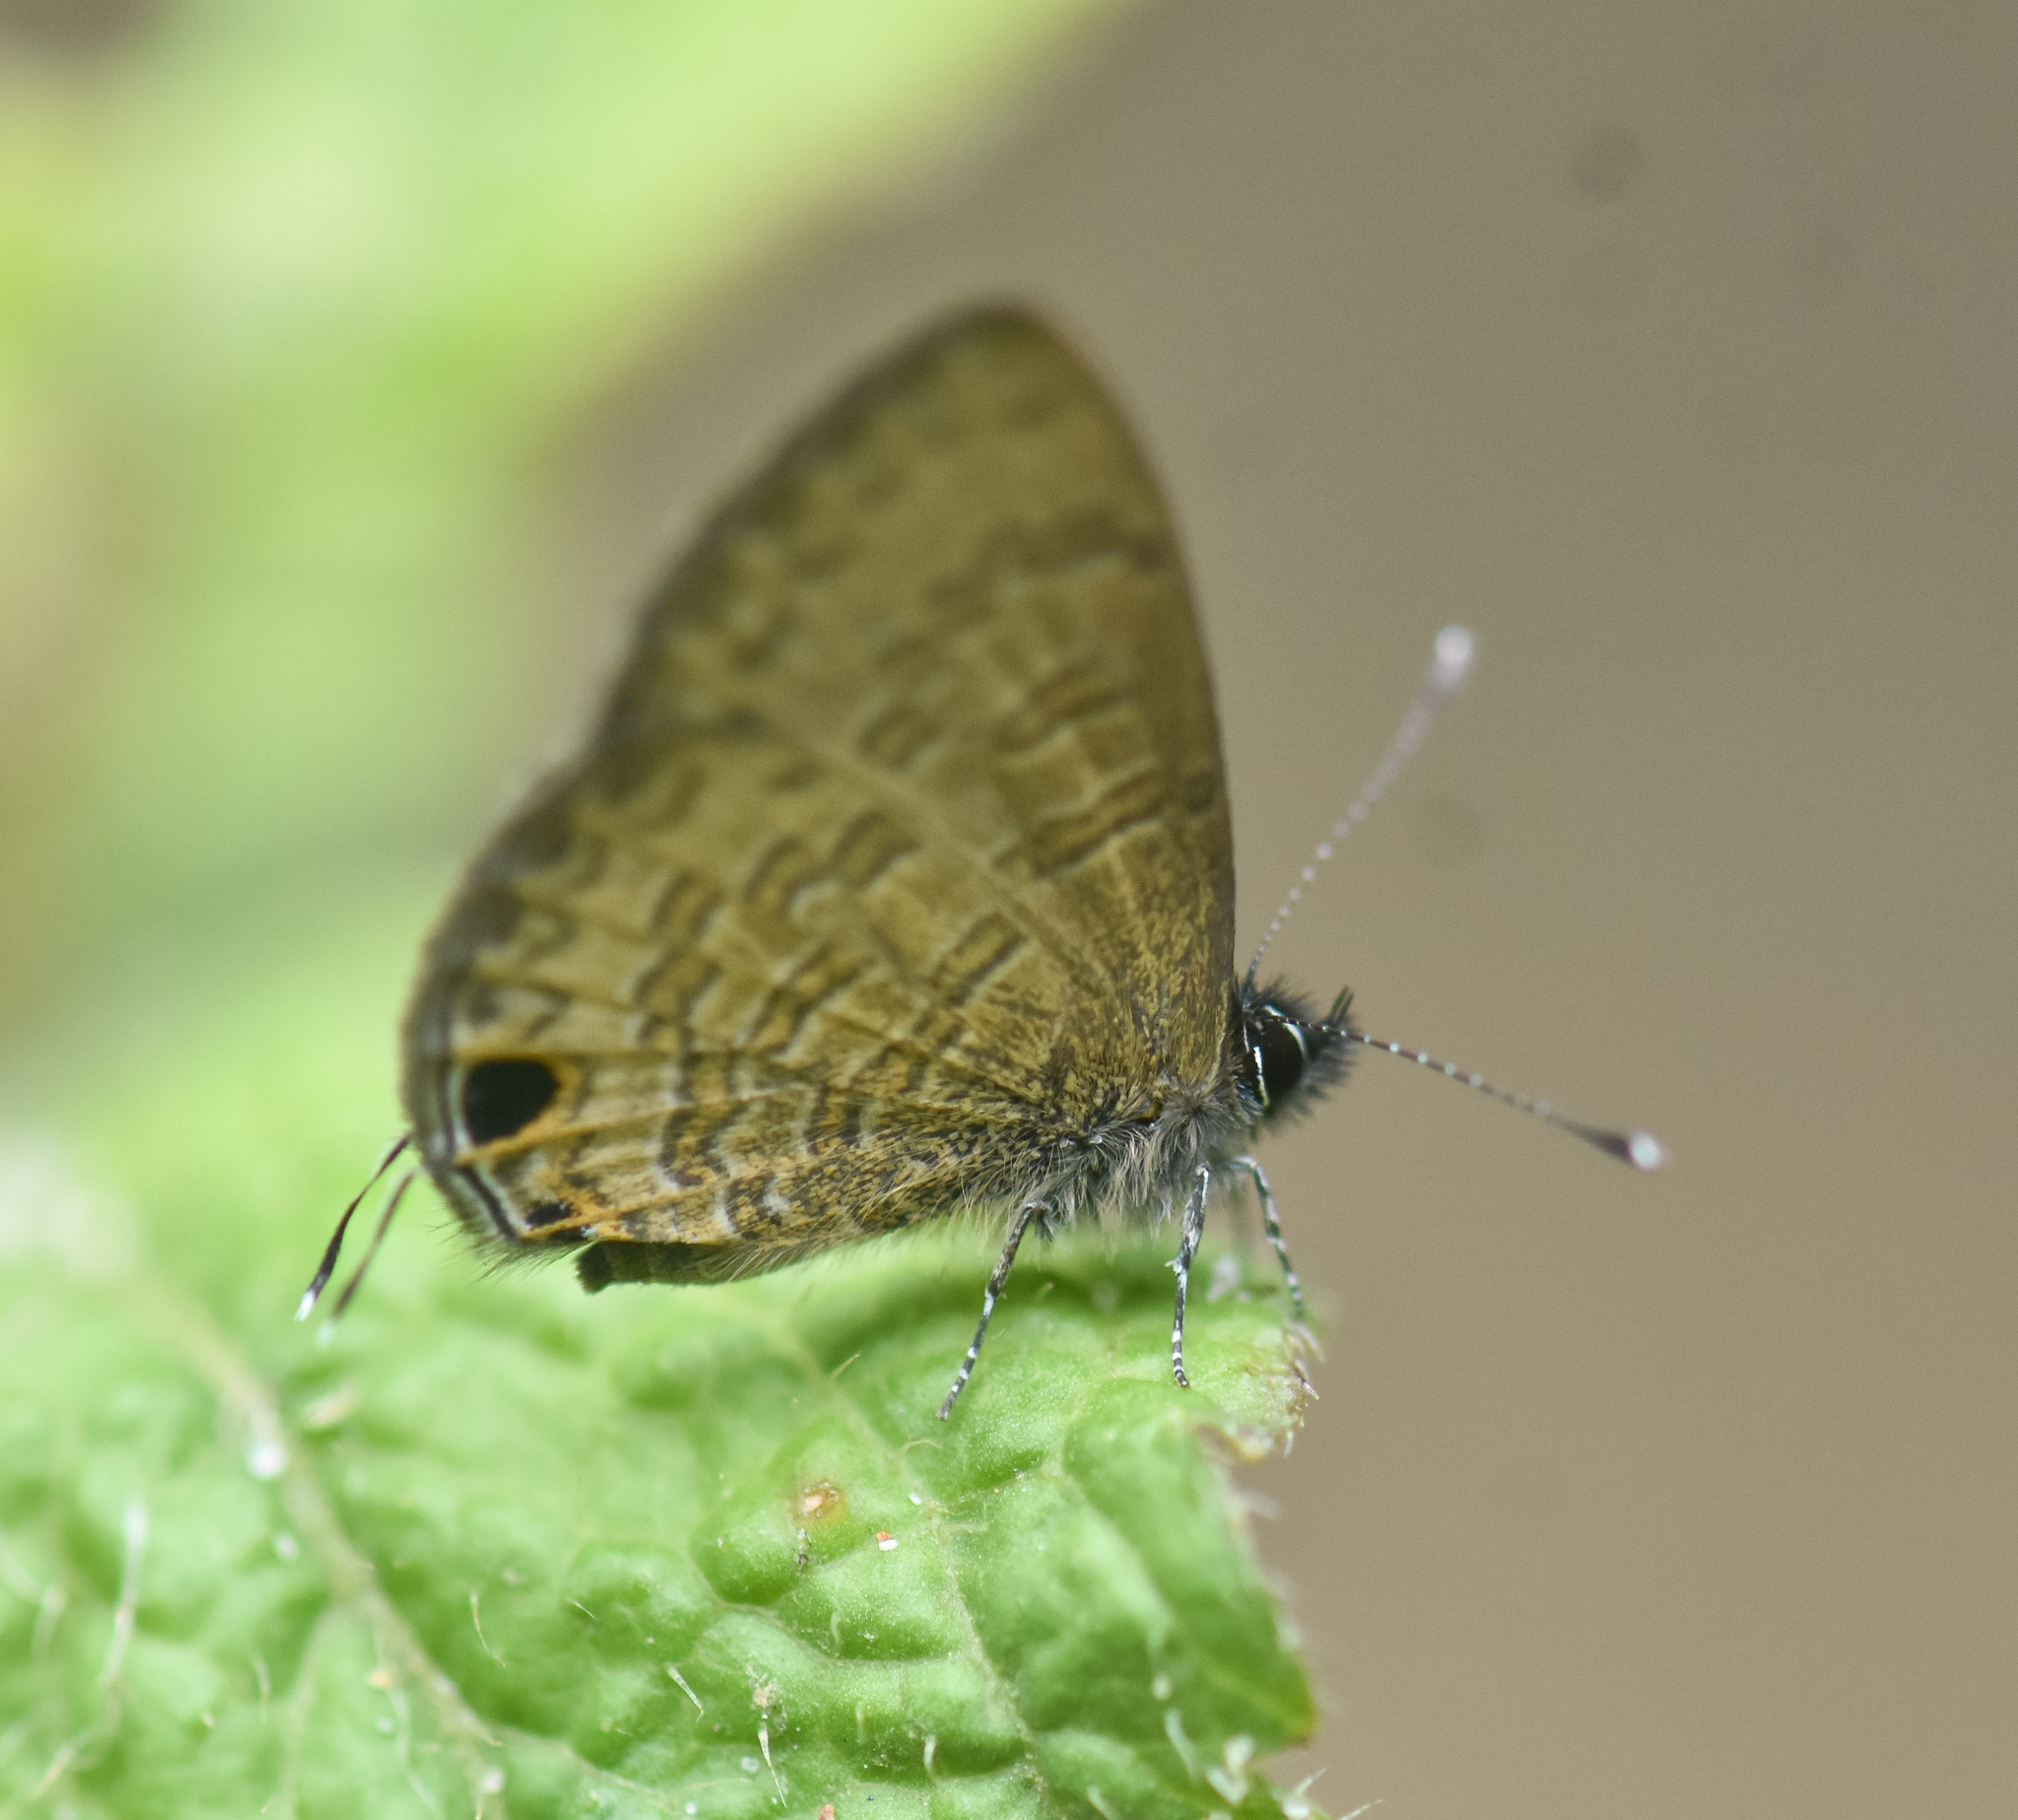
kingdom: Animalia
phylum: Arthropoda
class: Insecta
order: Lepidoptera
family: Lycaenidae
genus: Prosotas
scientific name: Prosotas nora
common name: Common line blue
